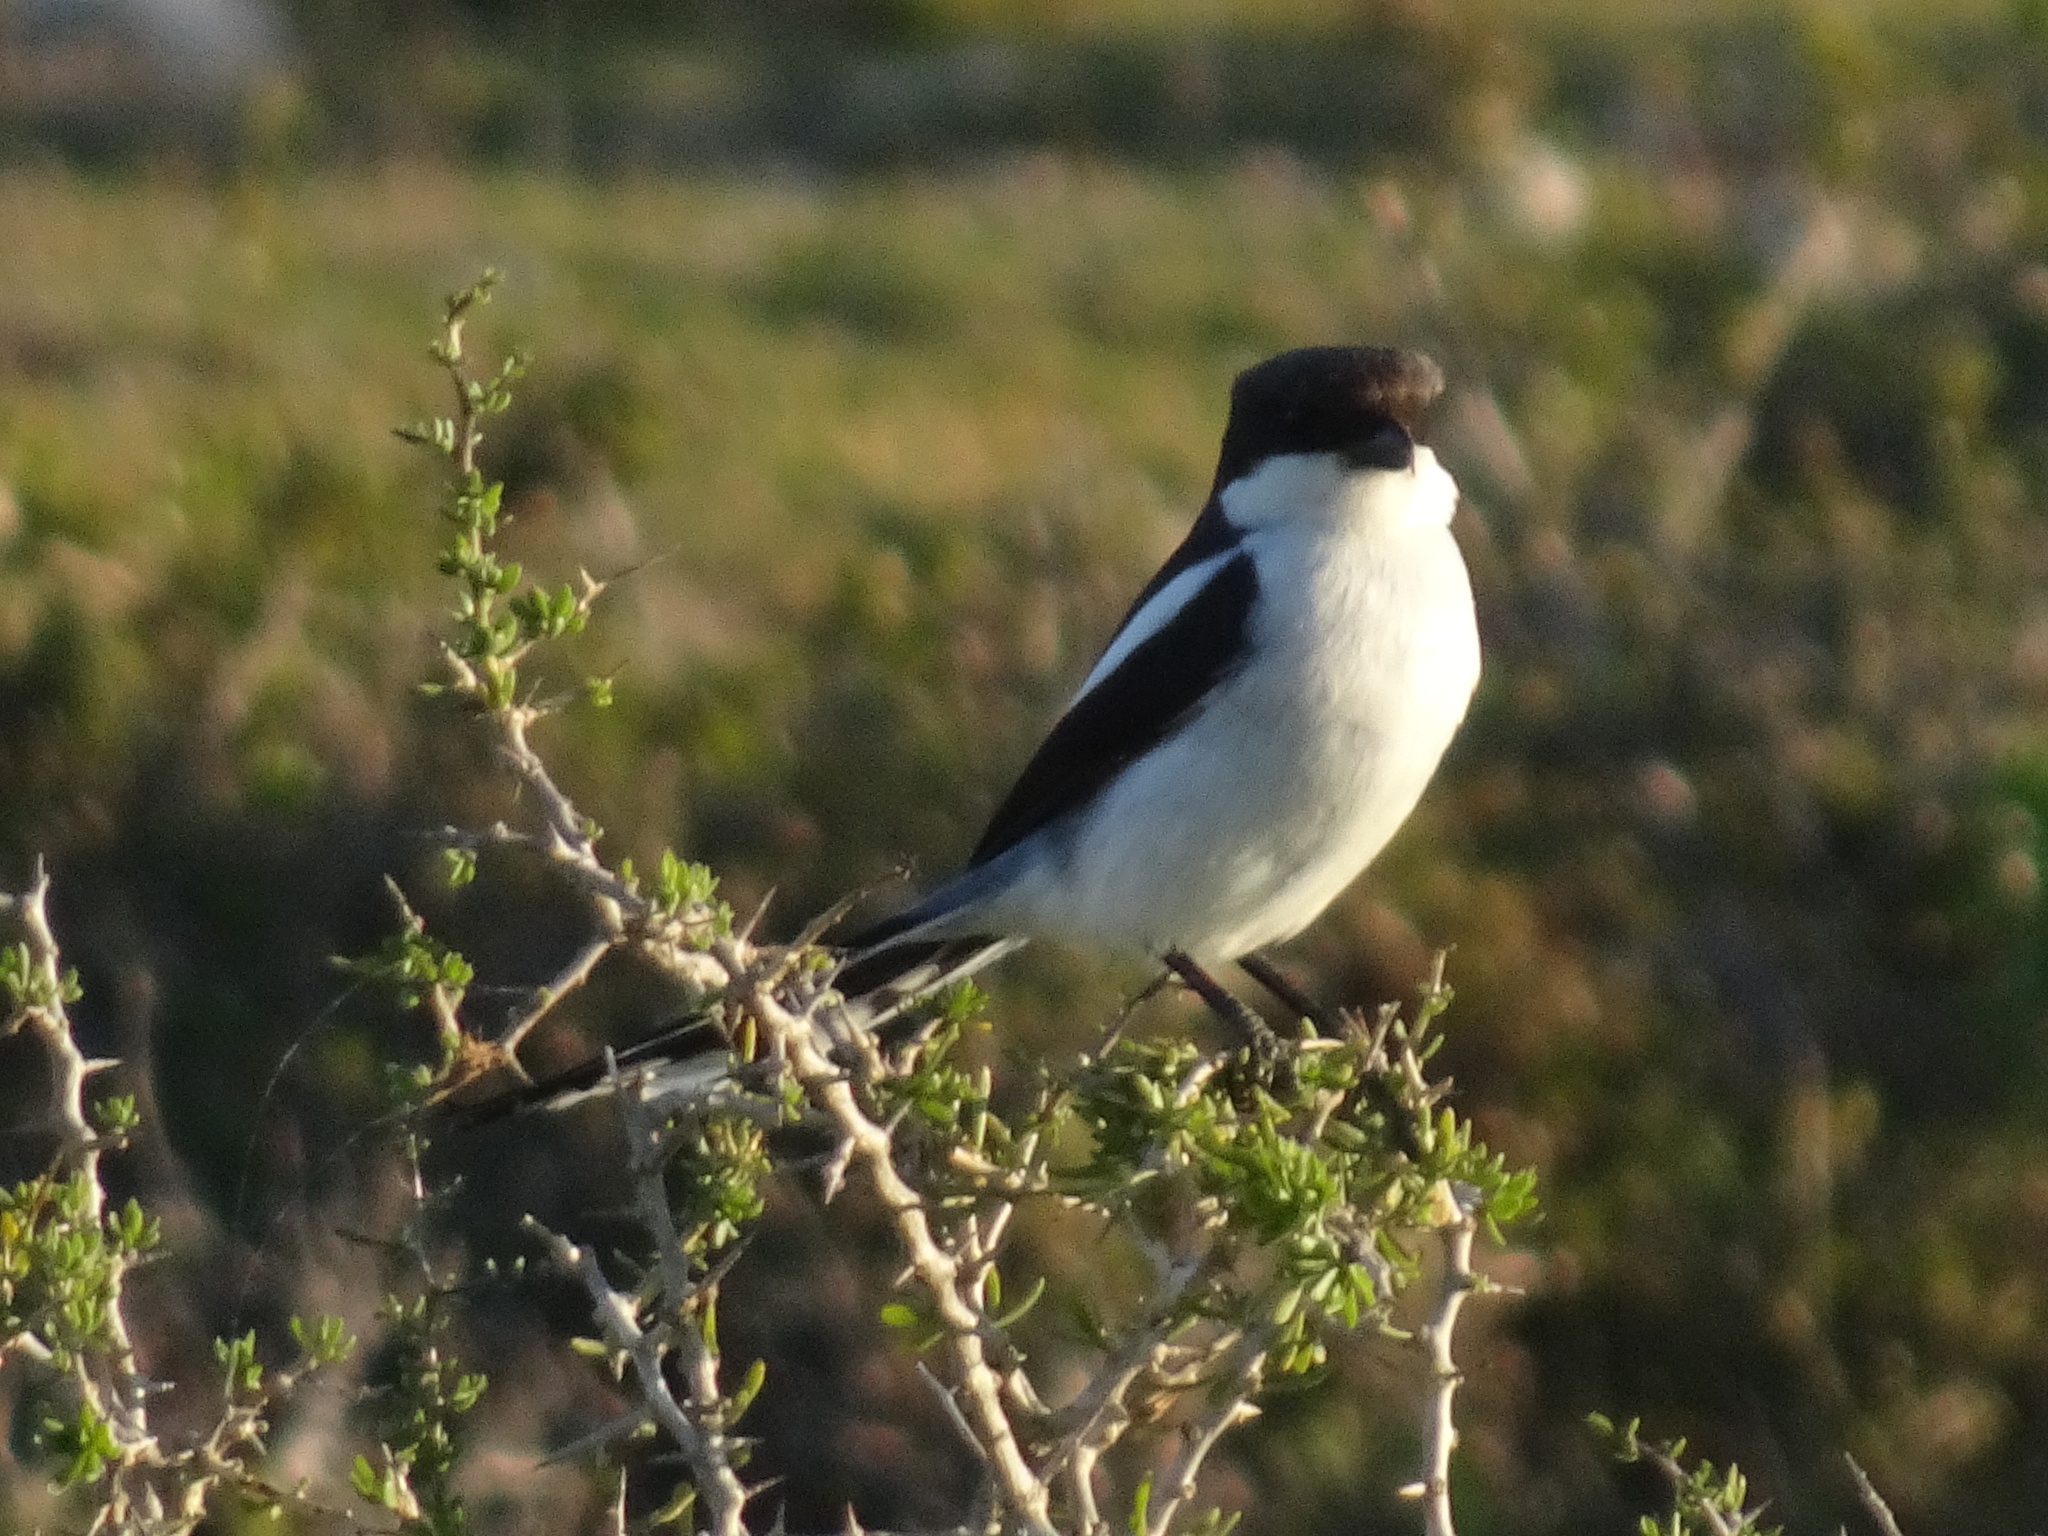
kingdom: Animalia
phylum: Chordata
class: Aves
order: Passeriformes
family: Laniidae
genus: Lanius
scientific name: Lanius collaris
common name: Southern fiscal
